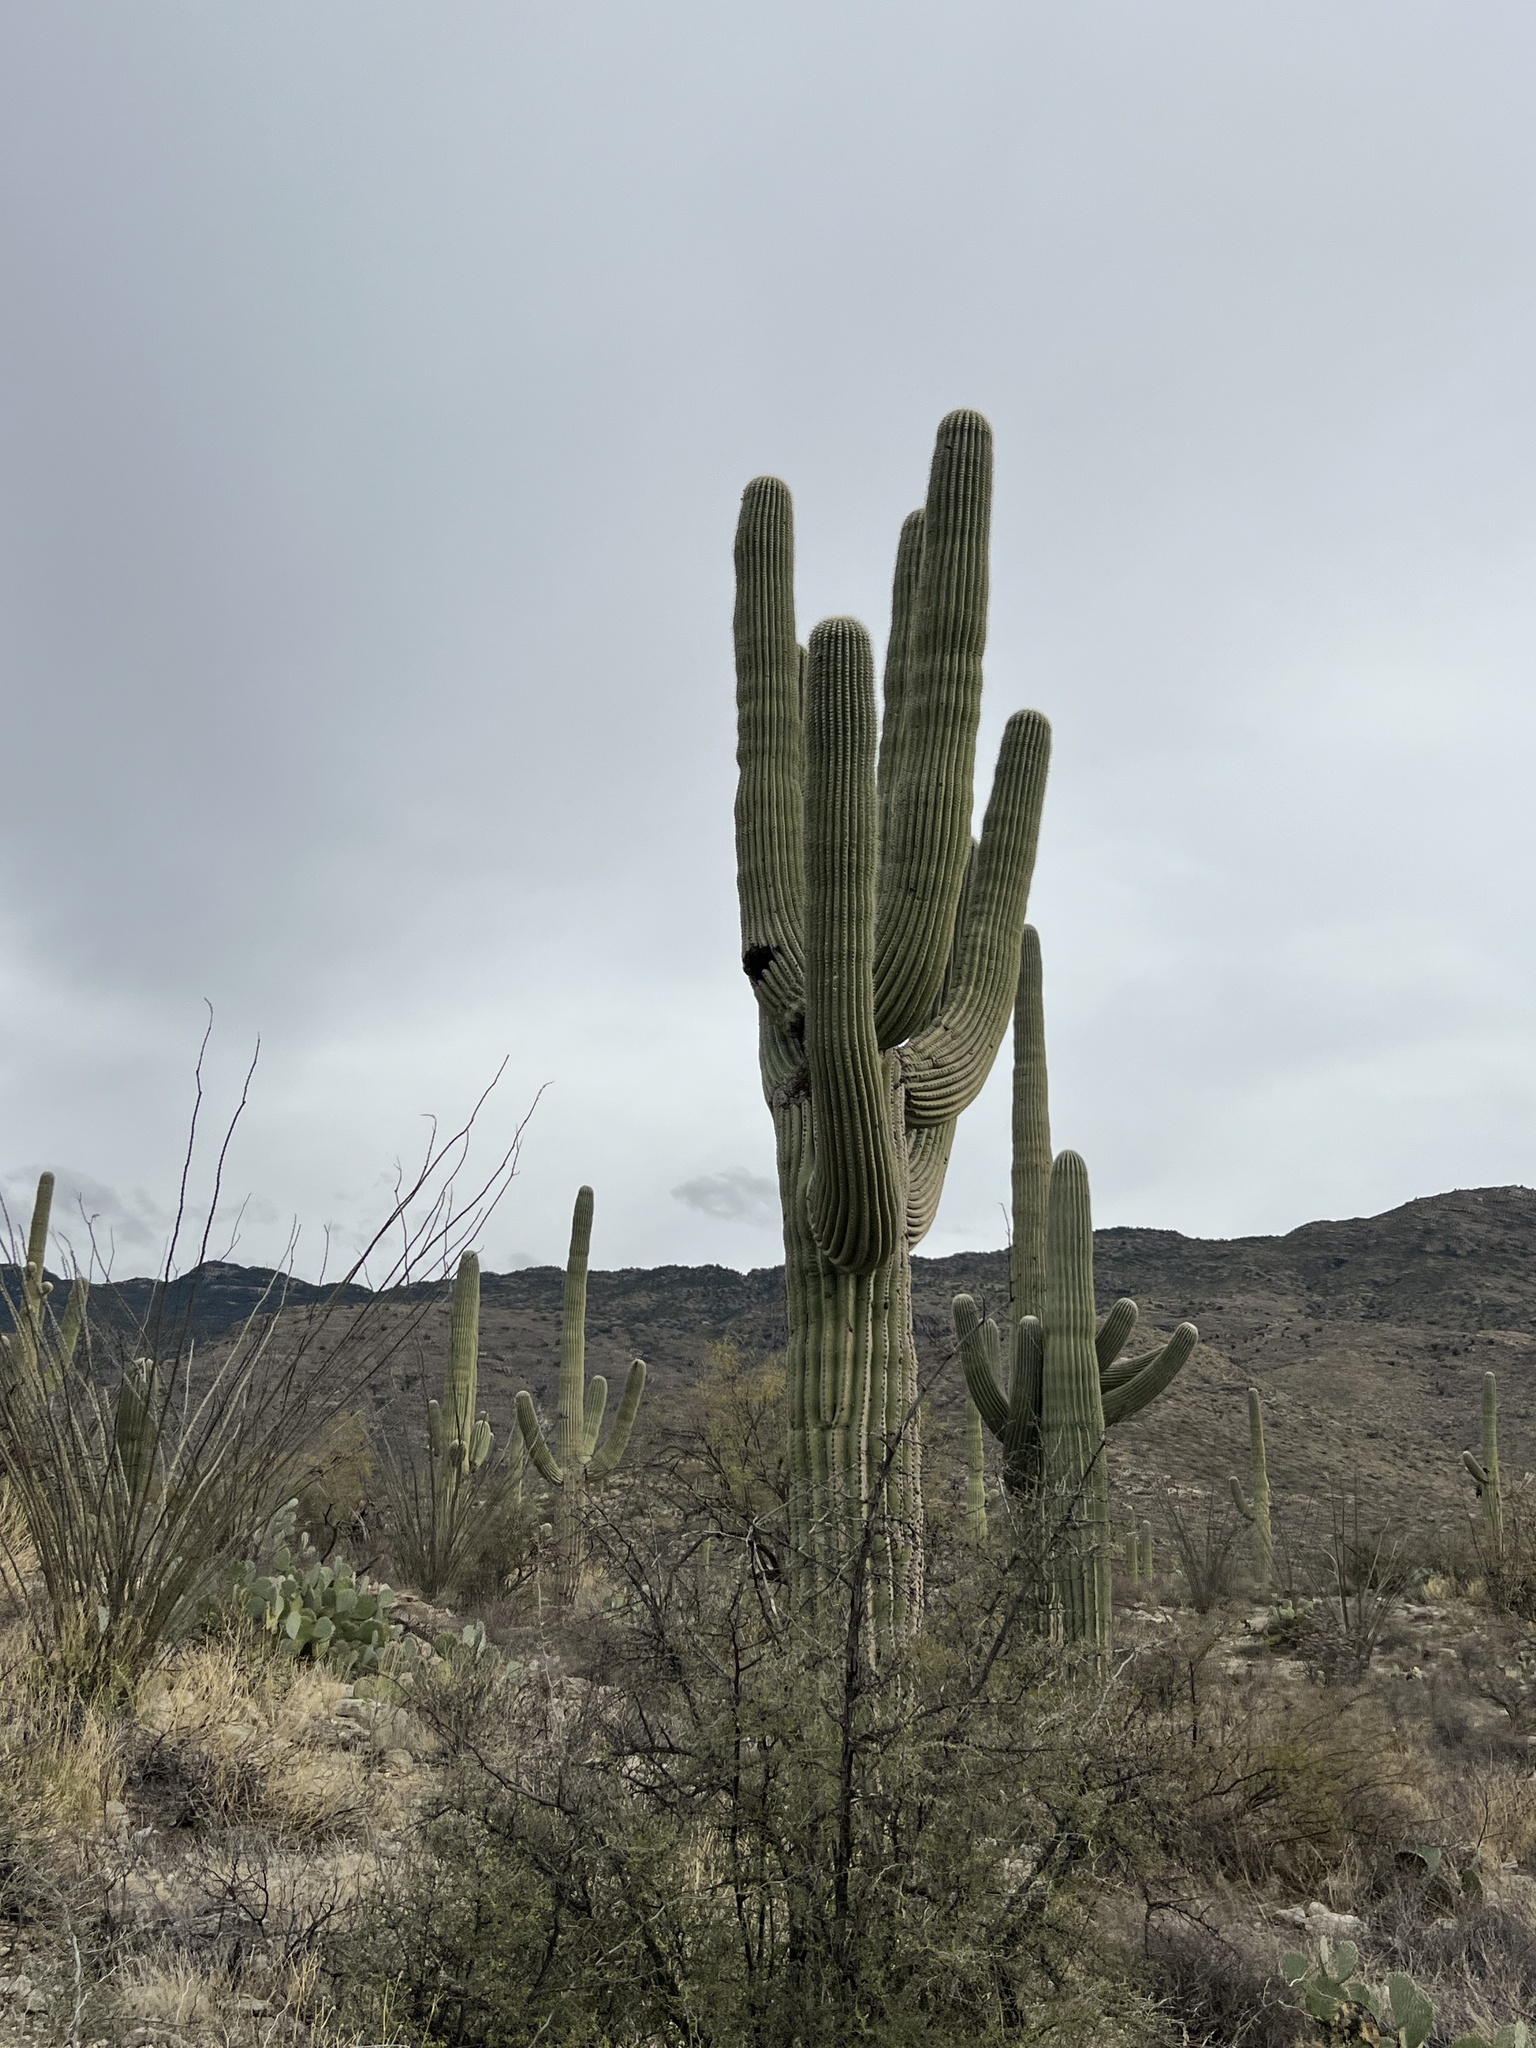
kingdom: Plantae
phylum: Tracheophyta
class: Magnoliopsida
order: Caryophyllales
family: Cactaceae
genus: Carnegiea
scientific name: Carnegiea gigantea
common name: Saguaro
